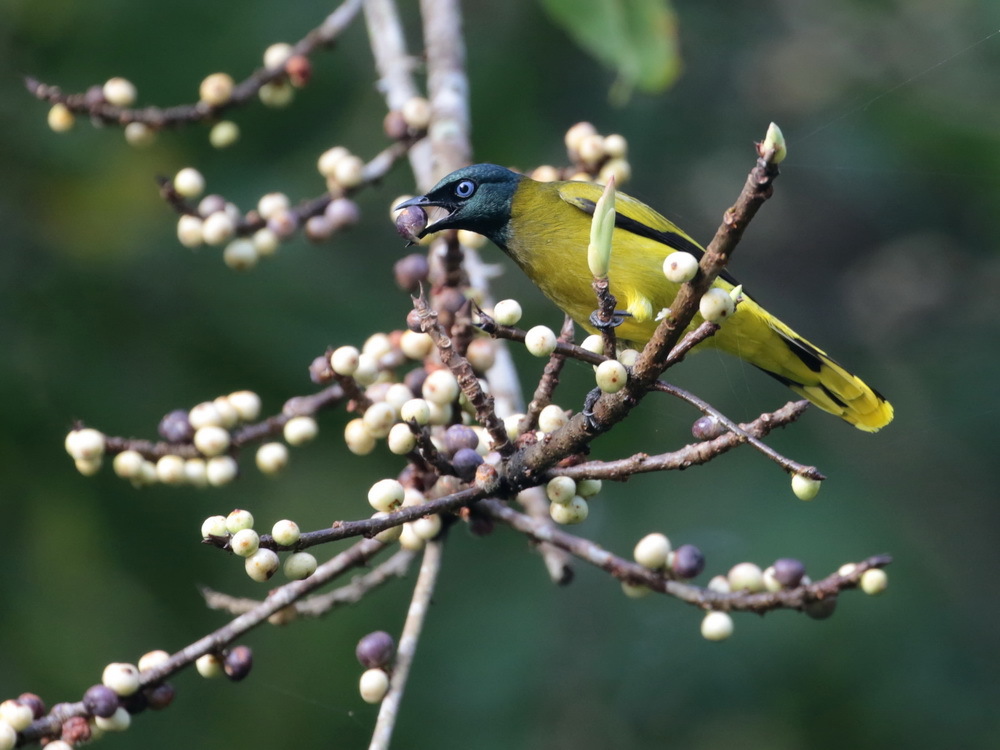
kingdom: Animalia
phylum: Chordata
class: Aves
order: Passeriformes
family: Pycnonotidae
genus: Microtarsus
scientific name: Microtarsus
